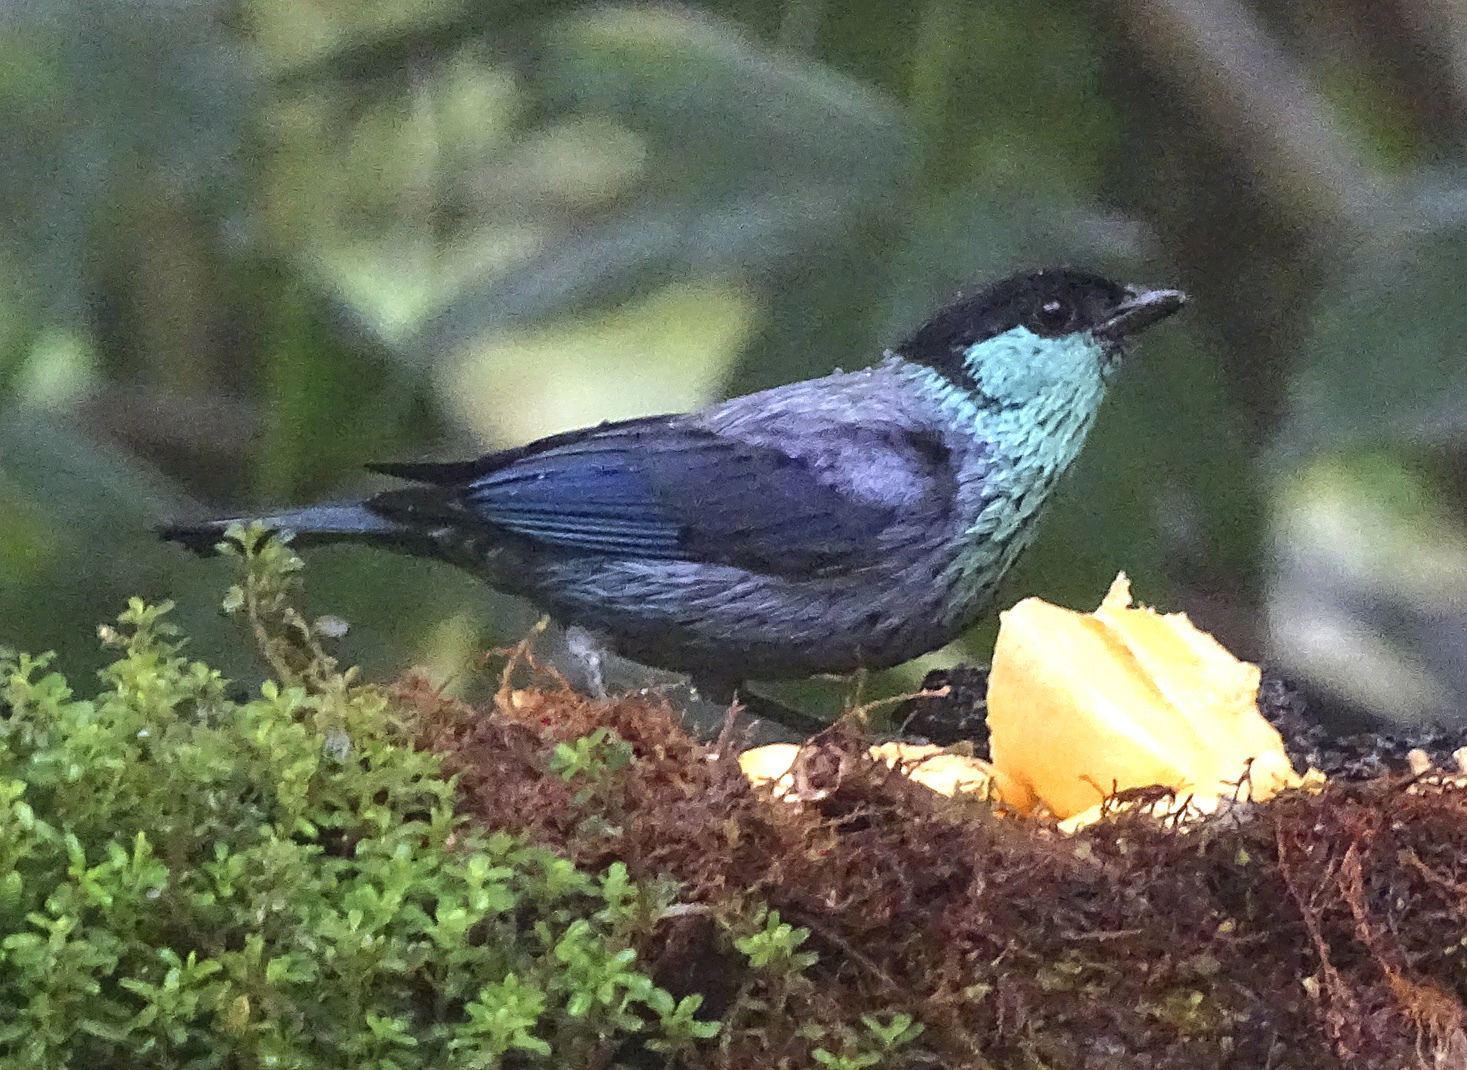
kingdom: Animalia
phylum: Chordata
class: Aves
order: Passeriformes
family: Thraupidae
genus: Stilpnia
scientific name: Stilpnia heinei
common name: Black-capped tanager
